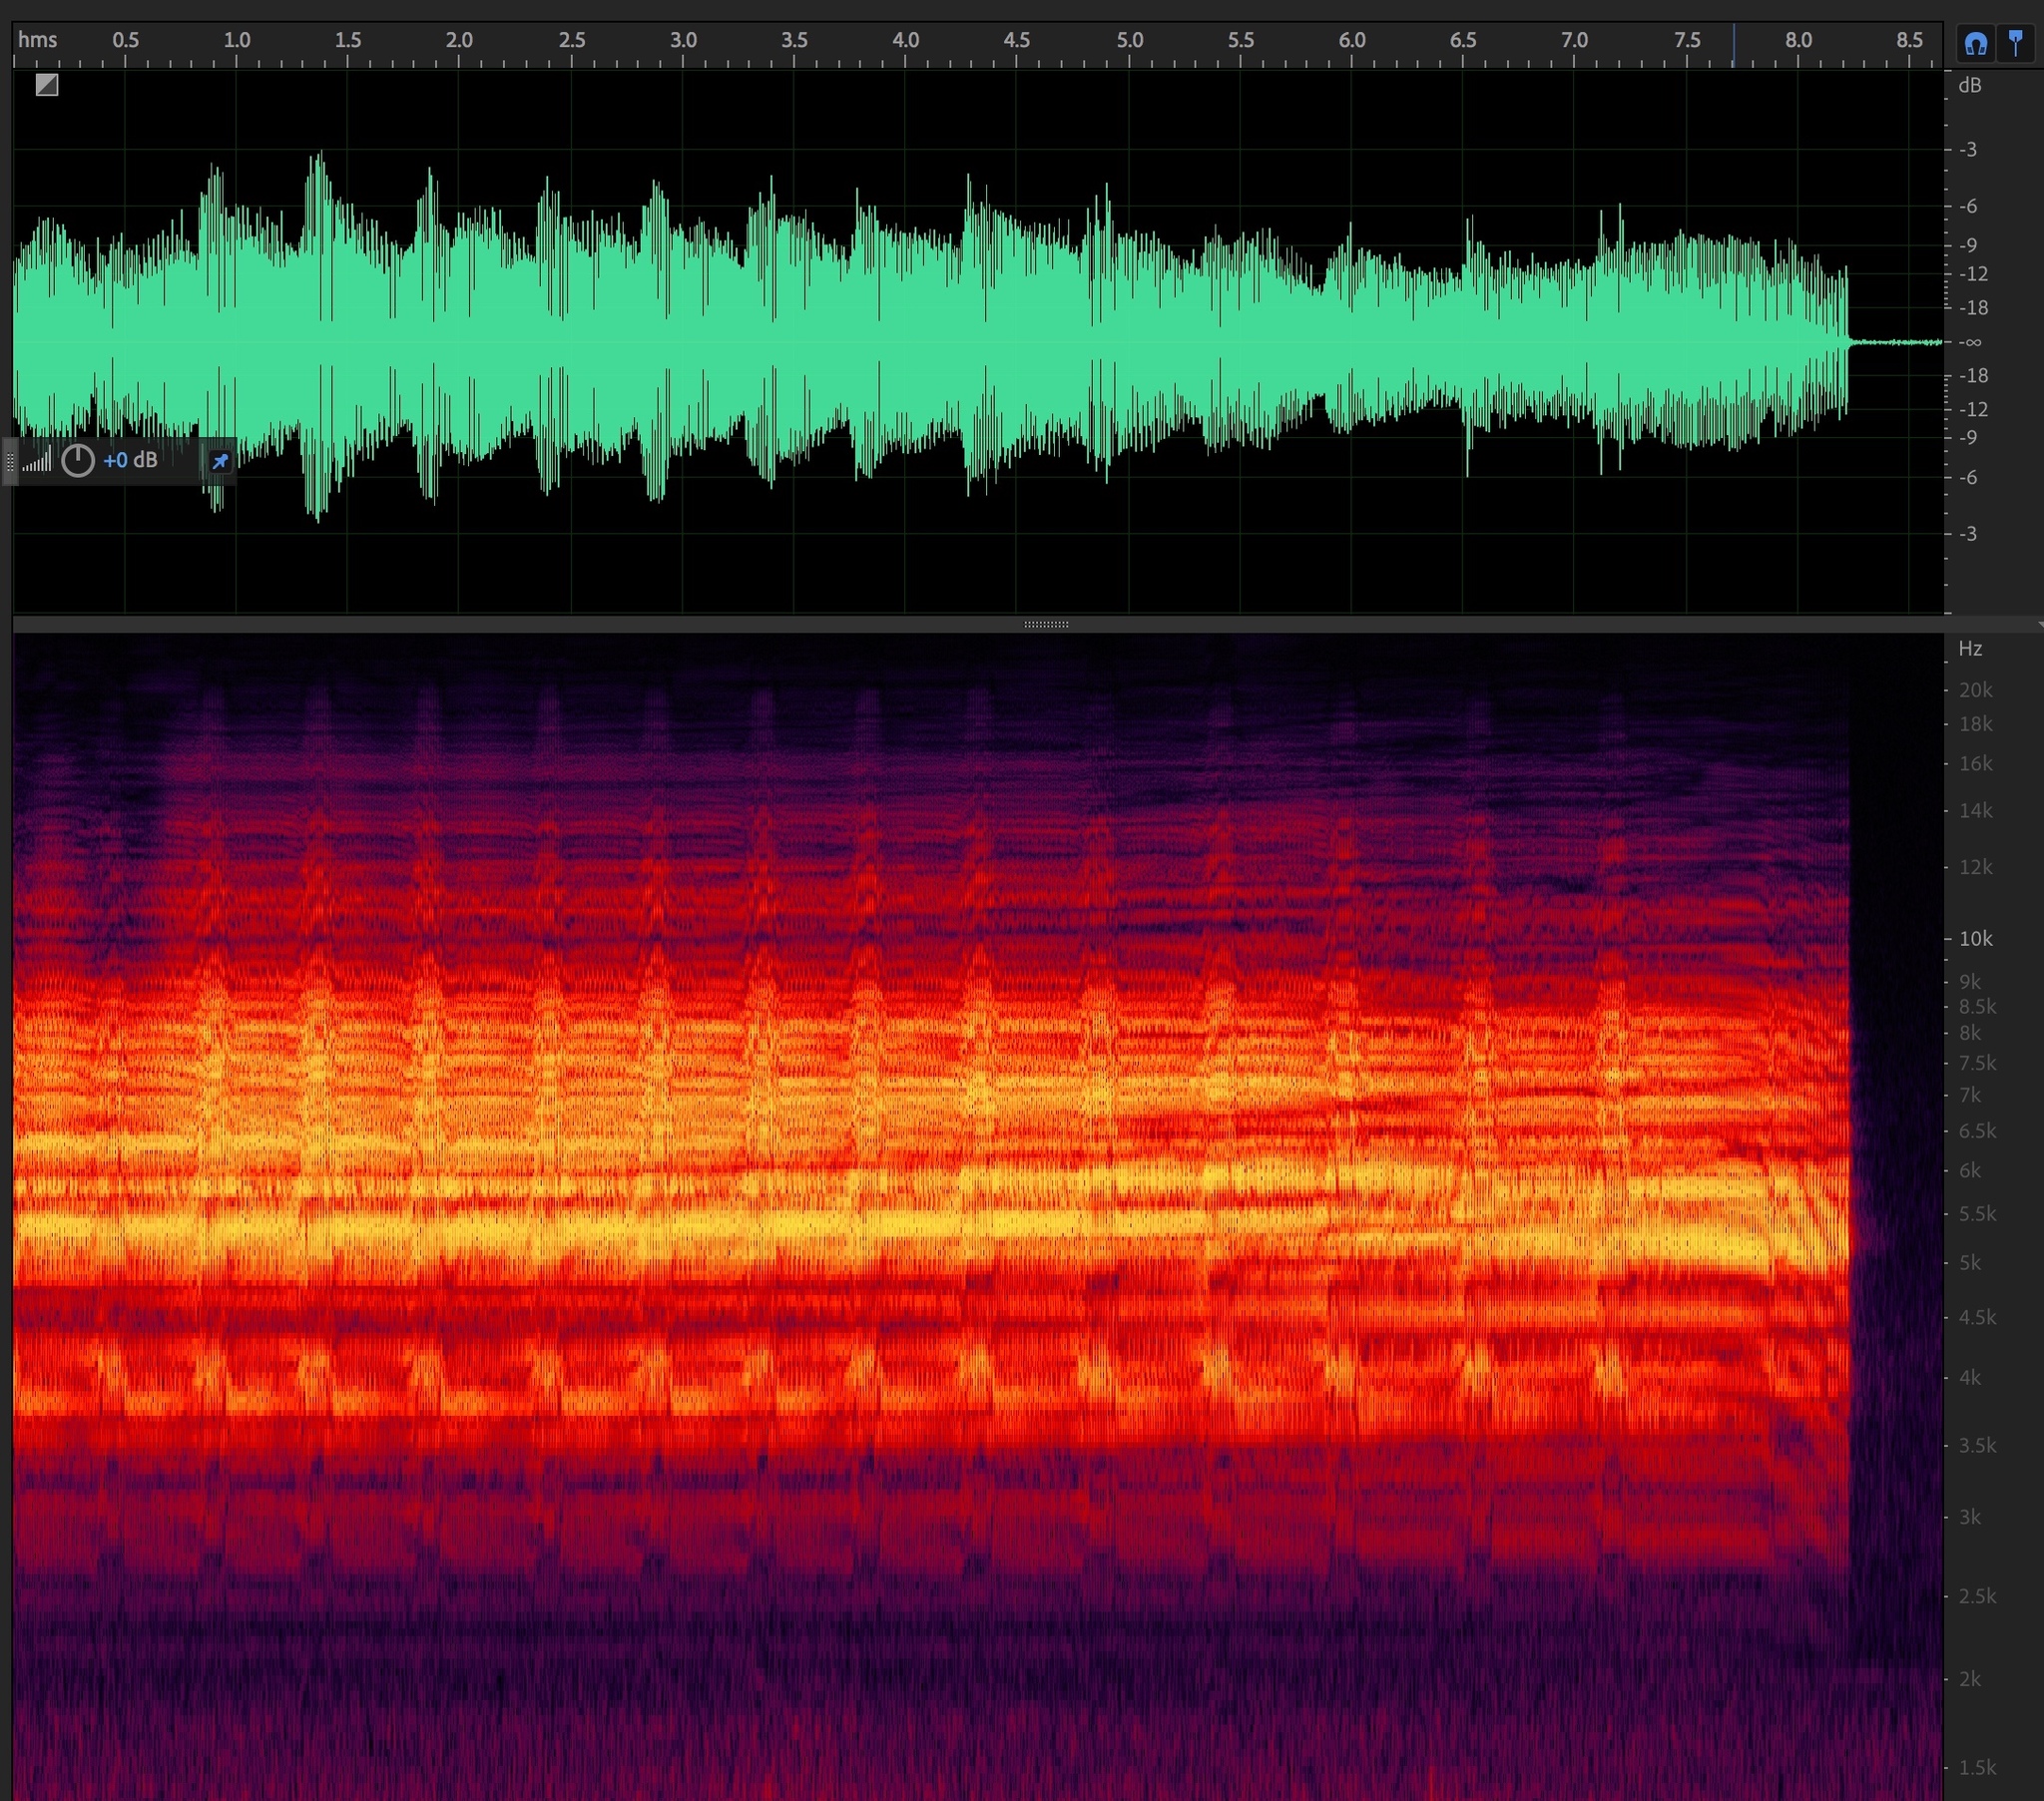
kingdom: Animalia
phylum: Arthropoda
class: Insecta
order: Hemiptera
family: Cicadidae
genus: Megatibicen
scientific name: Megatibicen dealbatus
